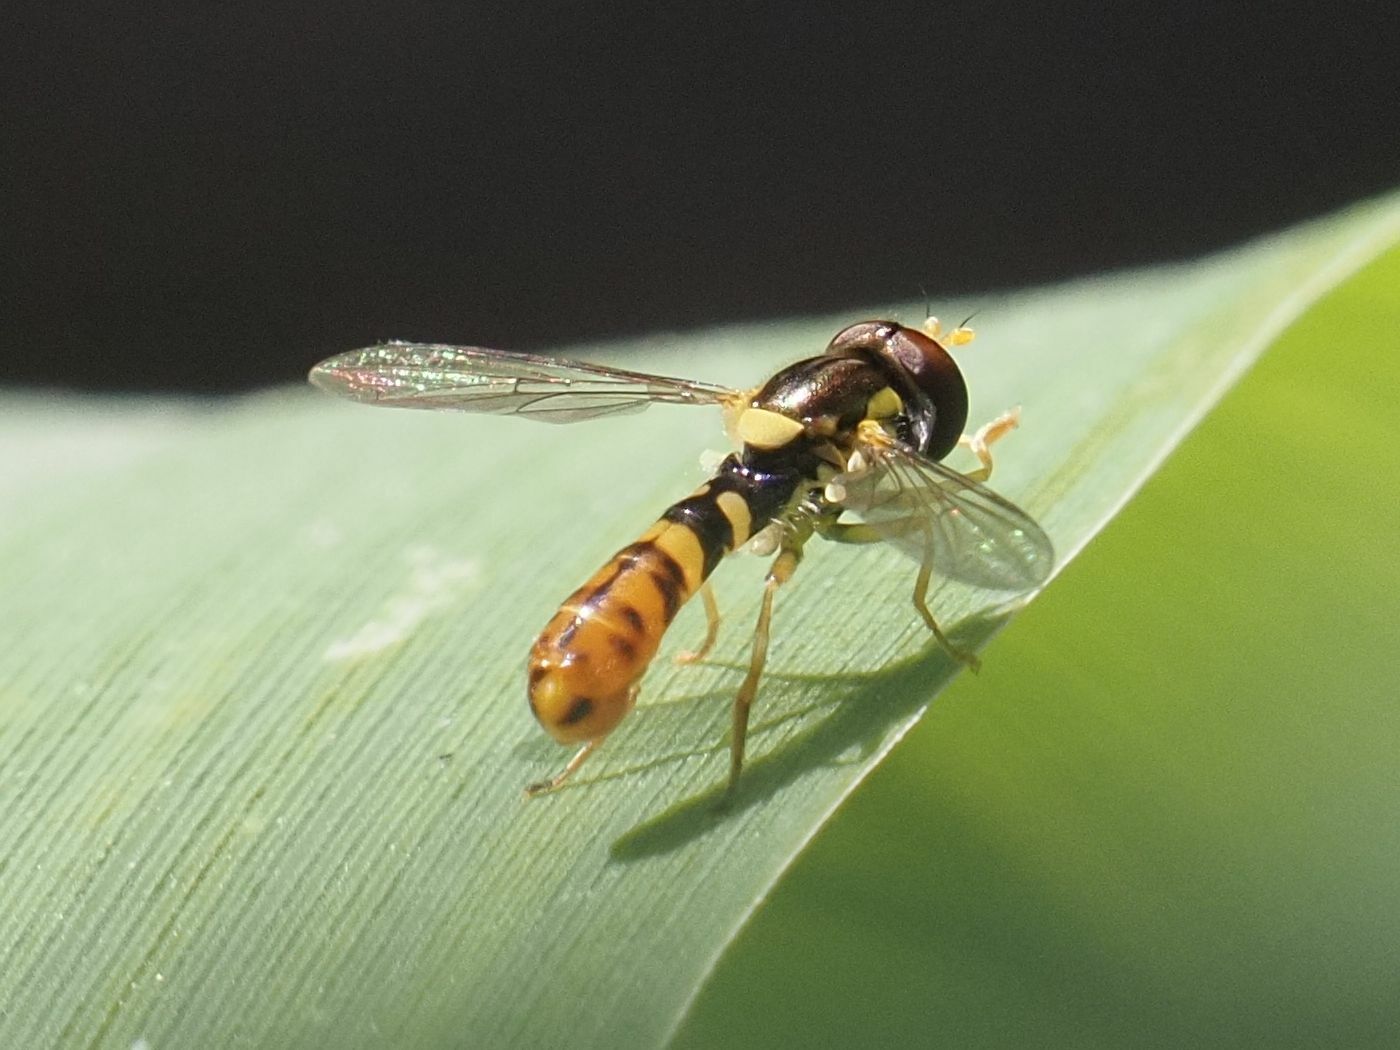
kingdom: Animalia
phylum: Arthropoda
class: Insecta
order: Diptera
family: Syrphidae
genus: Sphaerophoria
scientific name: Sphaerophoria rueppellii
